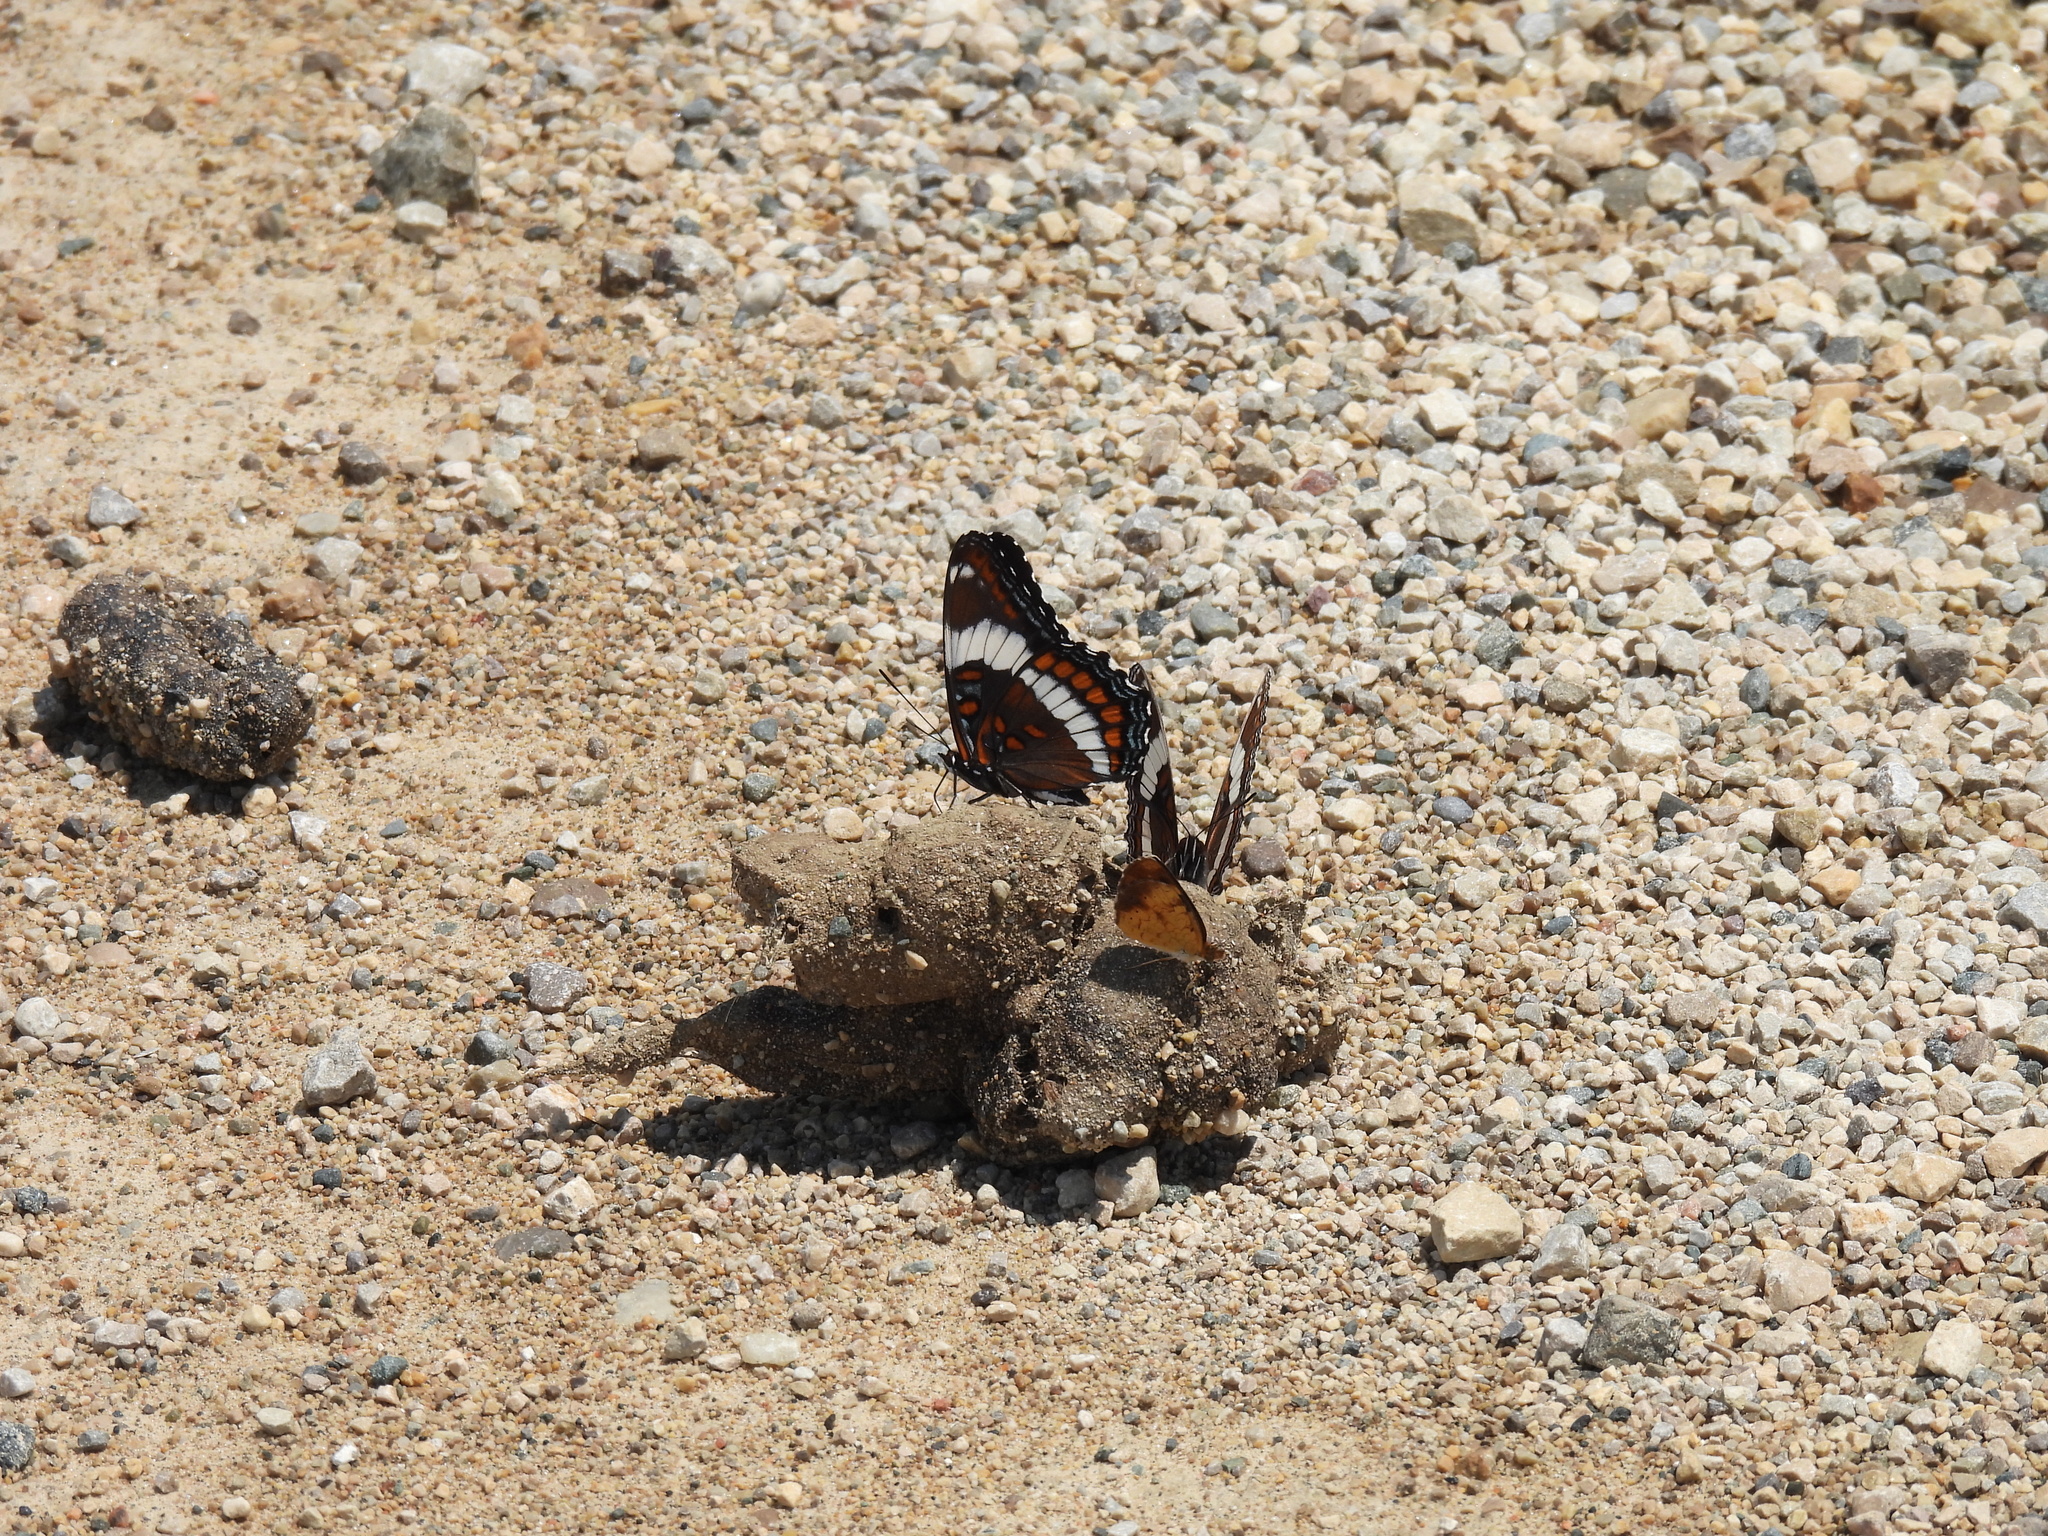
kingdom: Animalia
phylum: Arthropoda
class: Insecta
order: Lepidoptera
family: Nymphalidae
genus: Limenitis
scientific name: Limenitis arthemis
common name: Red-spotted admiral
